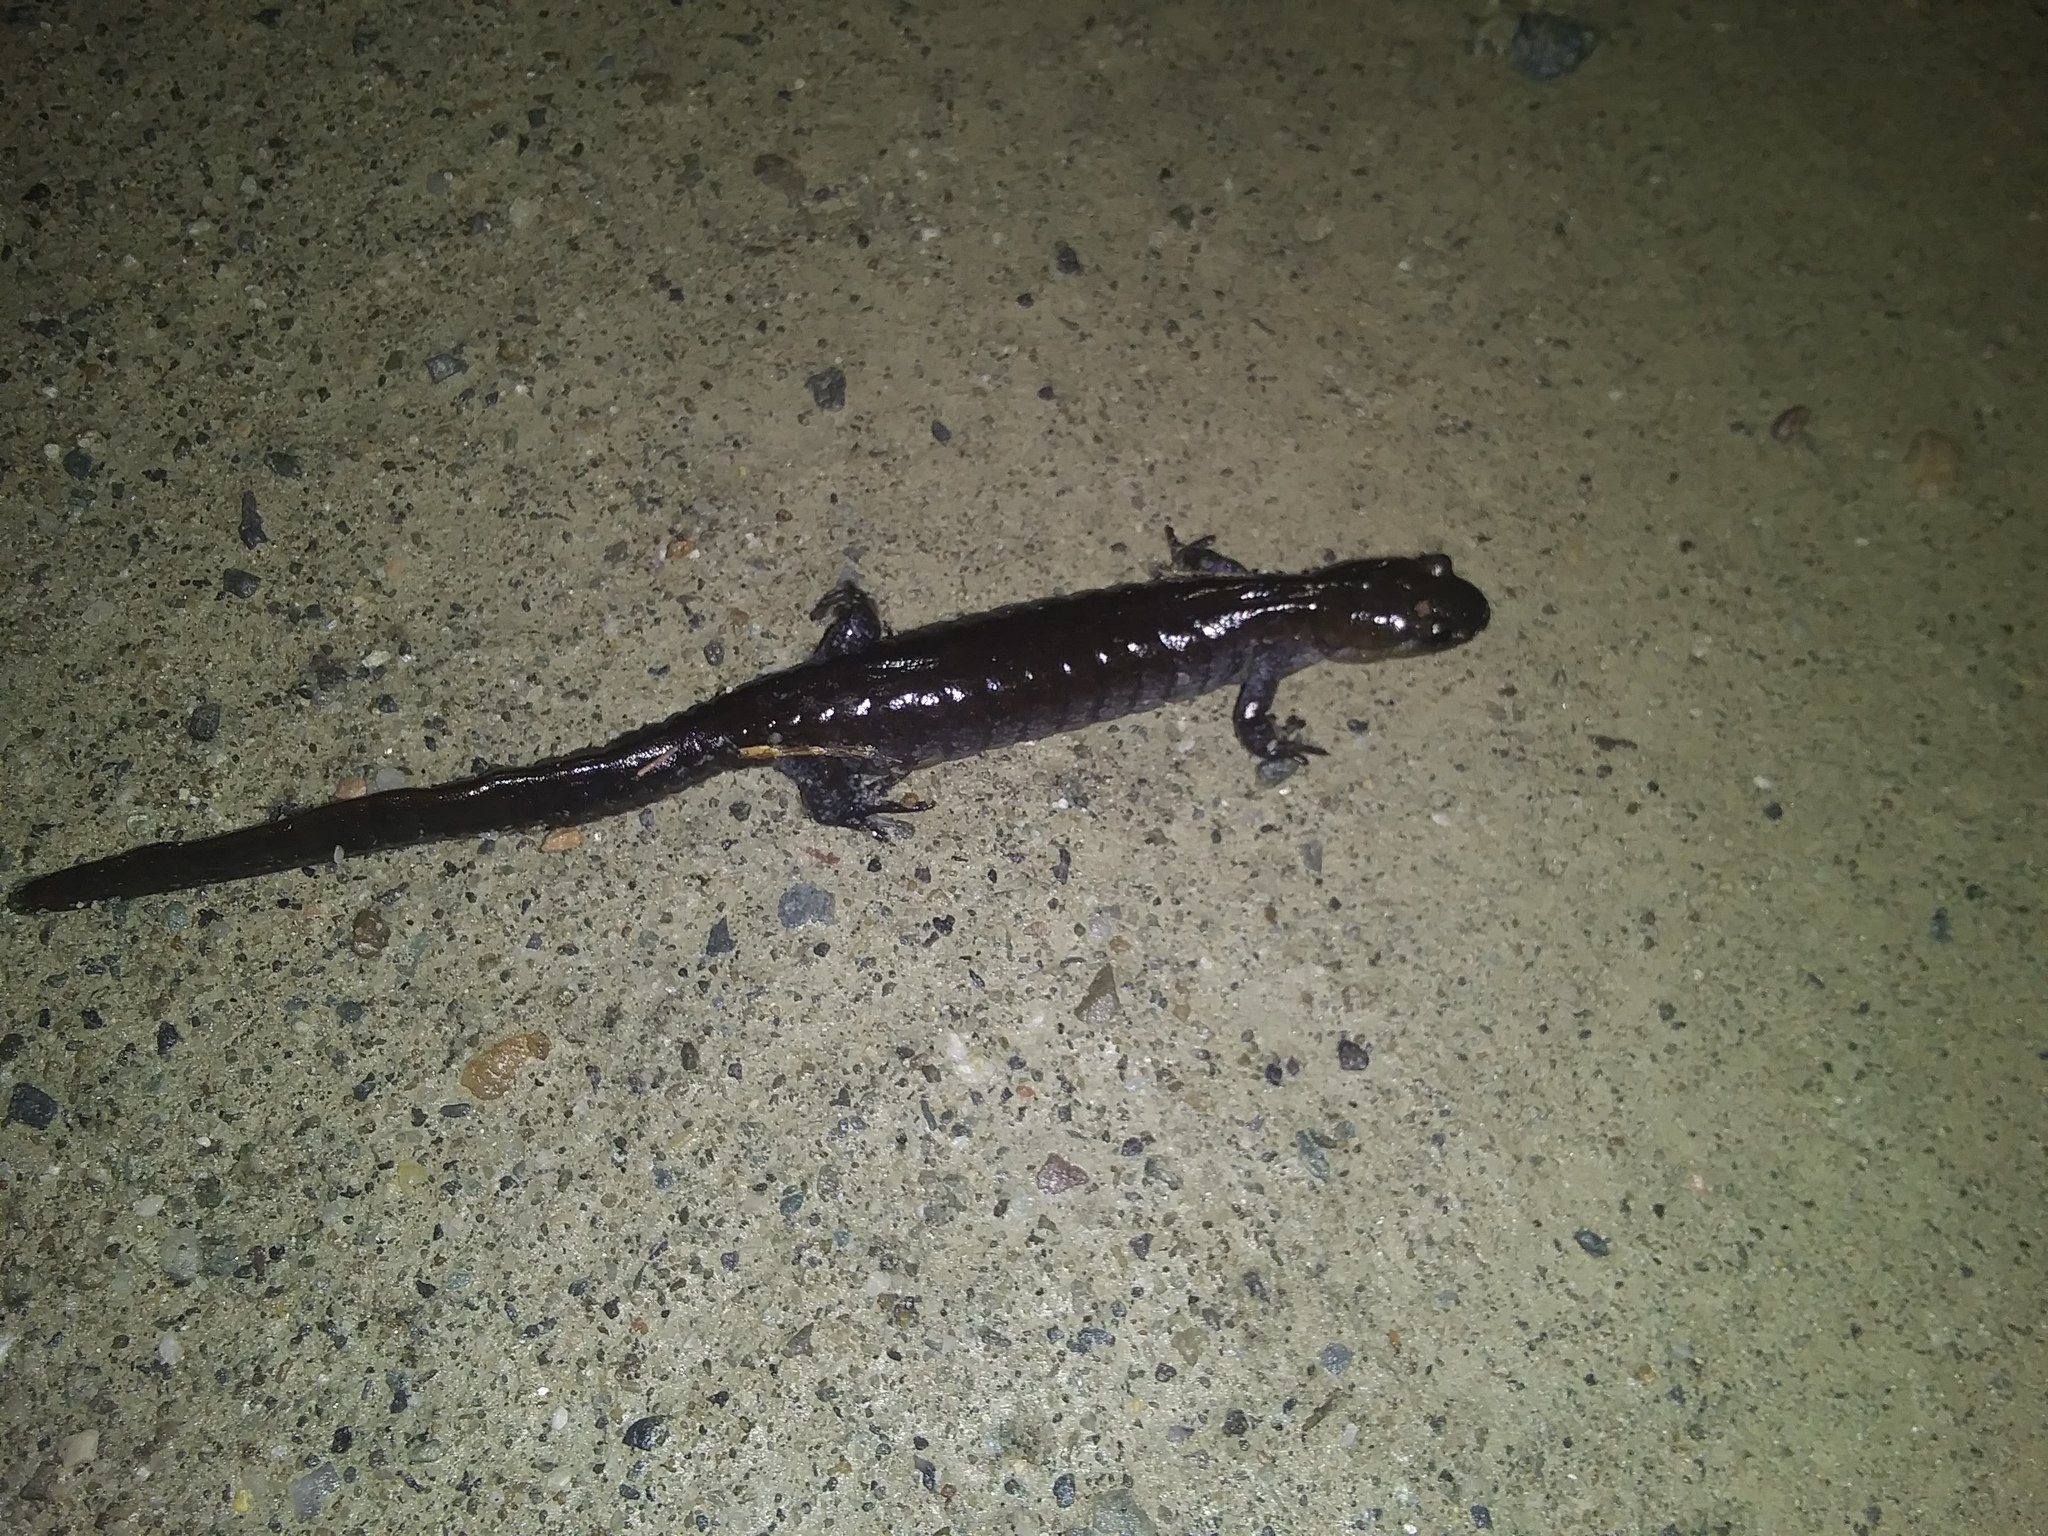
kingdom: Animalia
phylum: Chordata
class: Amphibia
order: Caudata
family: Ambystomatidae
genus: Ambystoma
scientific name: Ambystoma unisexual
